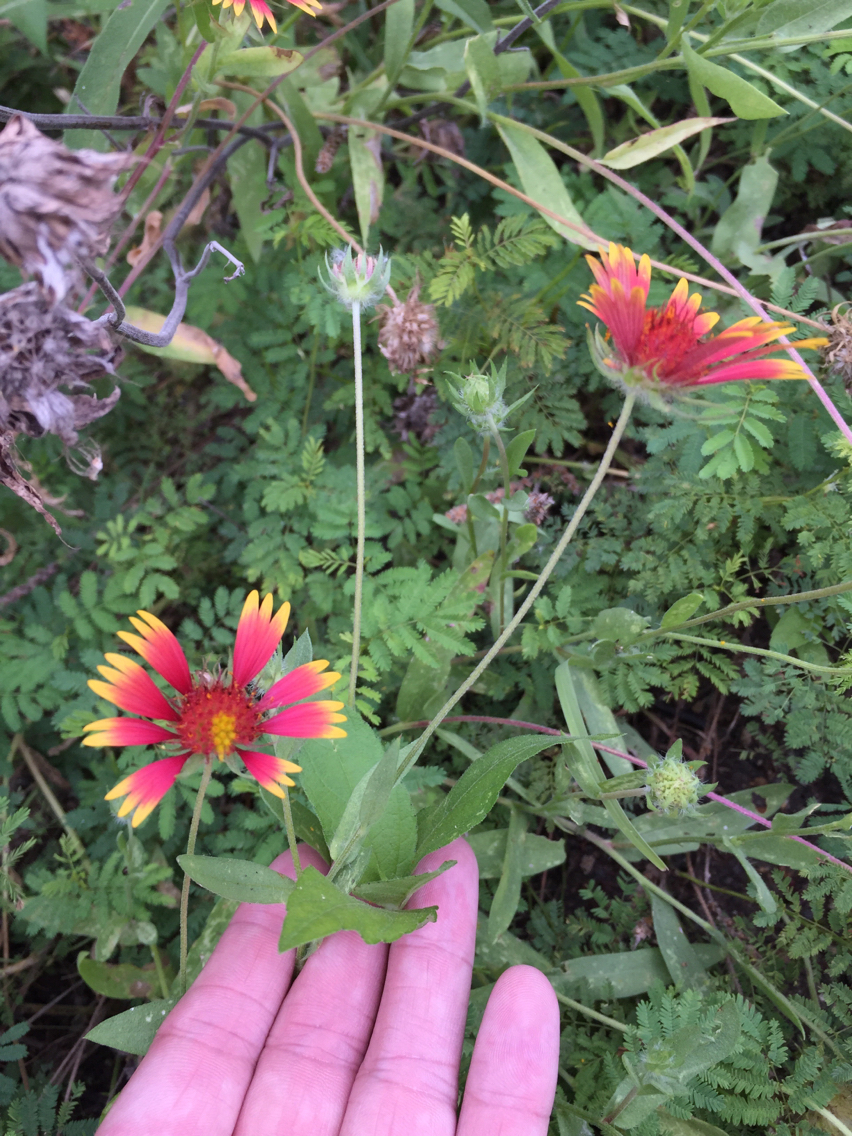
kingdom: Plantae
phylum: Tracheophyta
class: Magnoliopsida
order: Asterales
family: Asteraceae
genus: Gaillardia
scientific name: Gaillardia pulchella
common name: Firewheel
